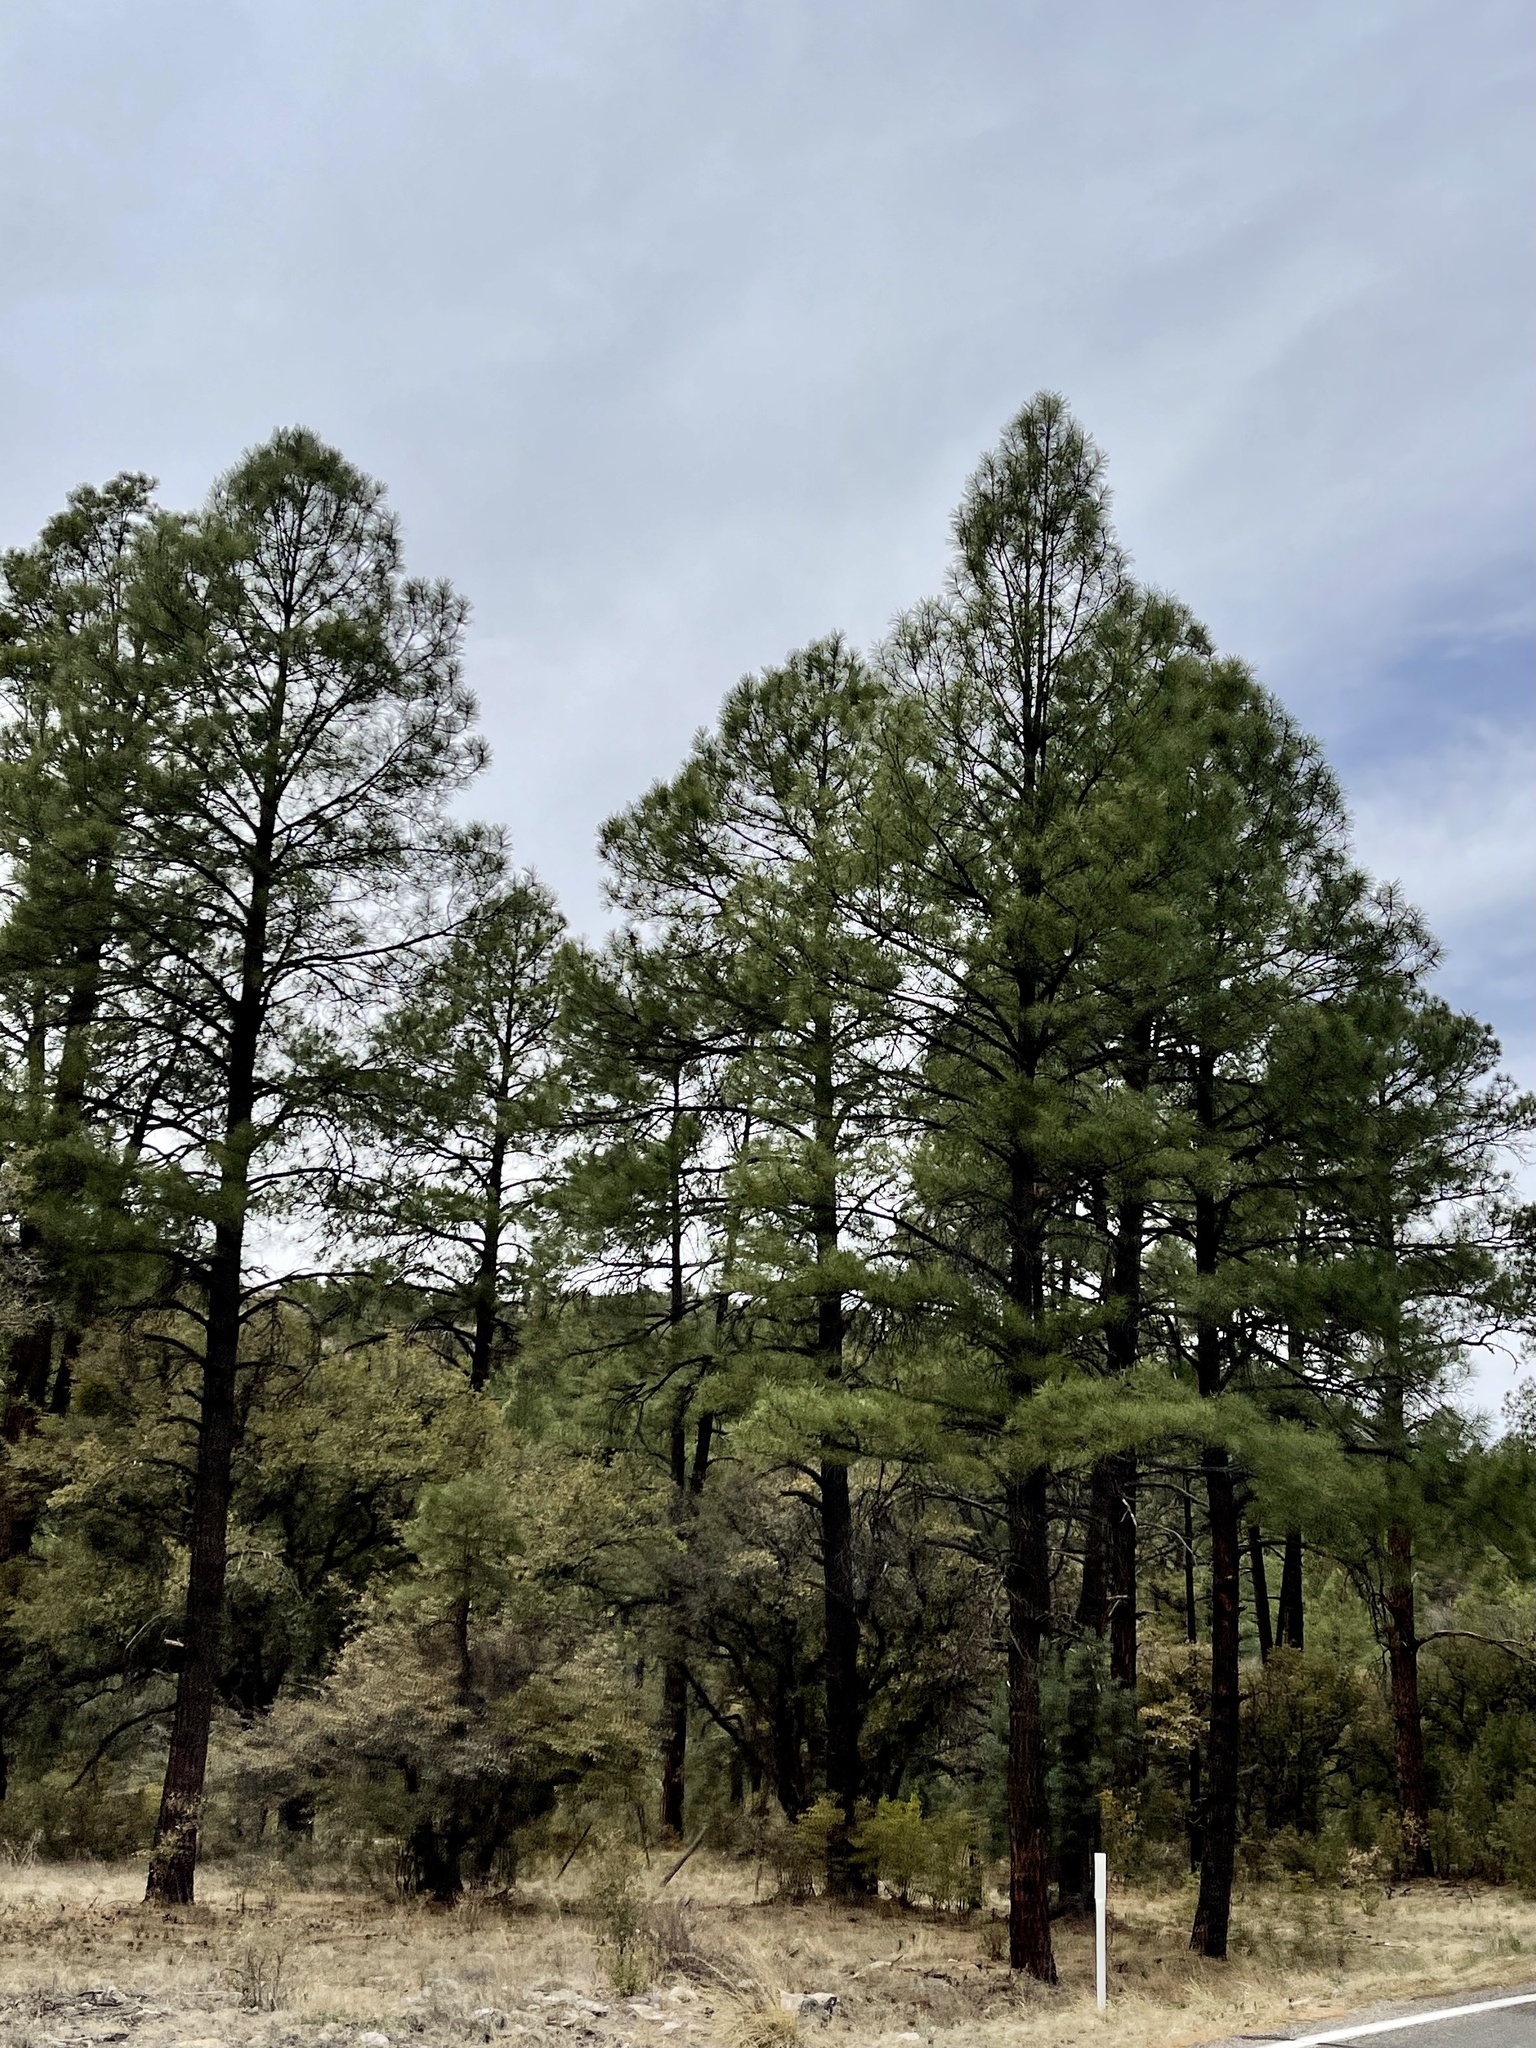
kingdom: Plantae
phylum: Tracheophyta
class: Pinopsida
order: Pinales
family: Pinaceae
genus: Pinus
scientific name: Pinus ponderosa
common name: Western yellow-pine
